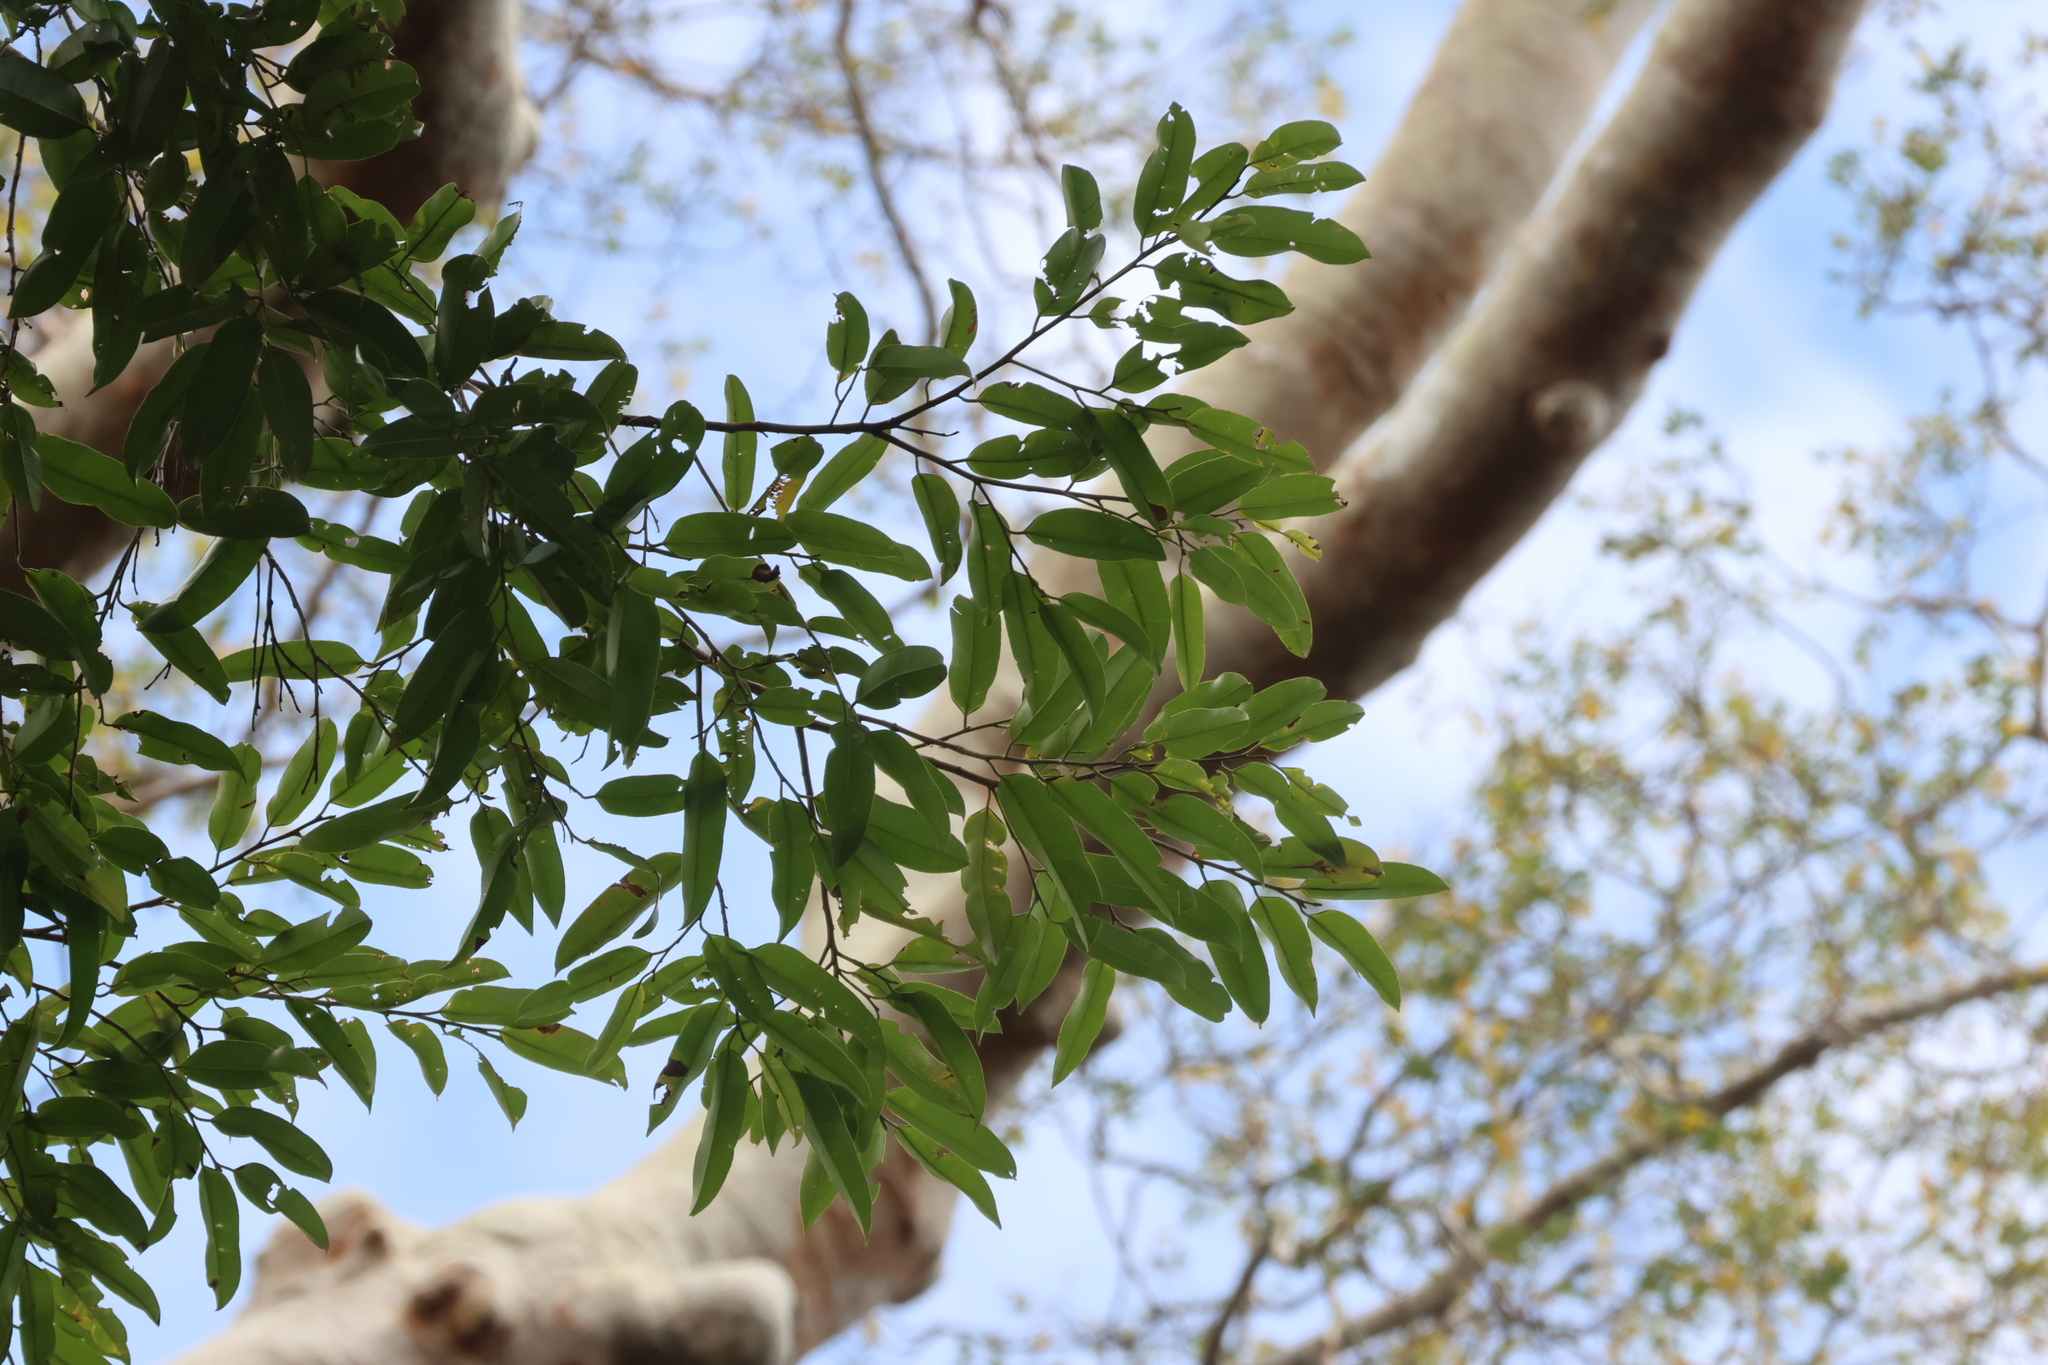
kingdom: Plantae
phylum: Tracheophyta
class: Magnoliopsida
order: Malvales
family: Dipterocarpaceae
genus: Dryobalanops
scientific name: Dryobalanops lanceolata
